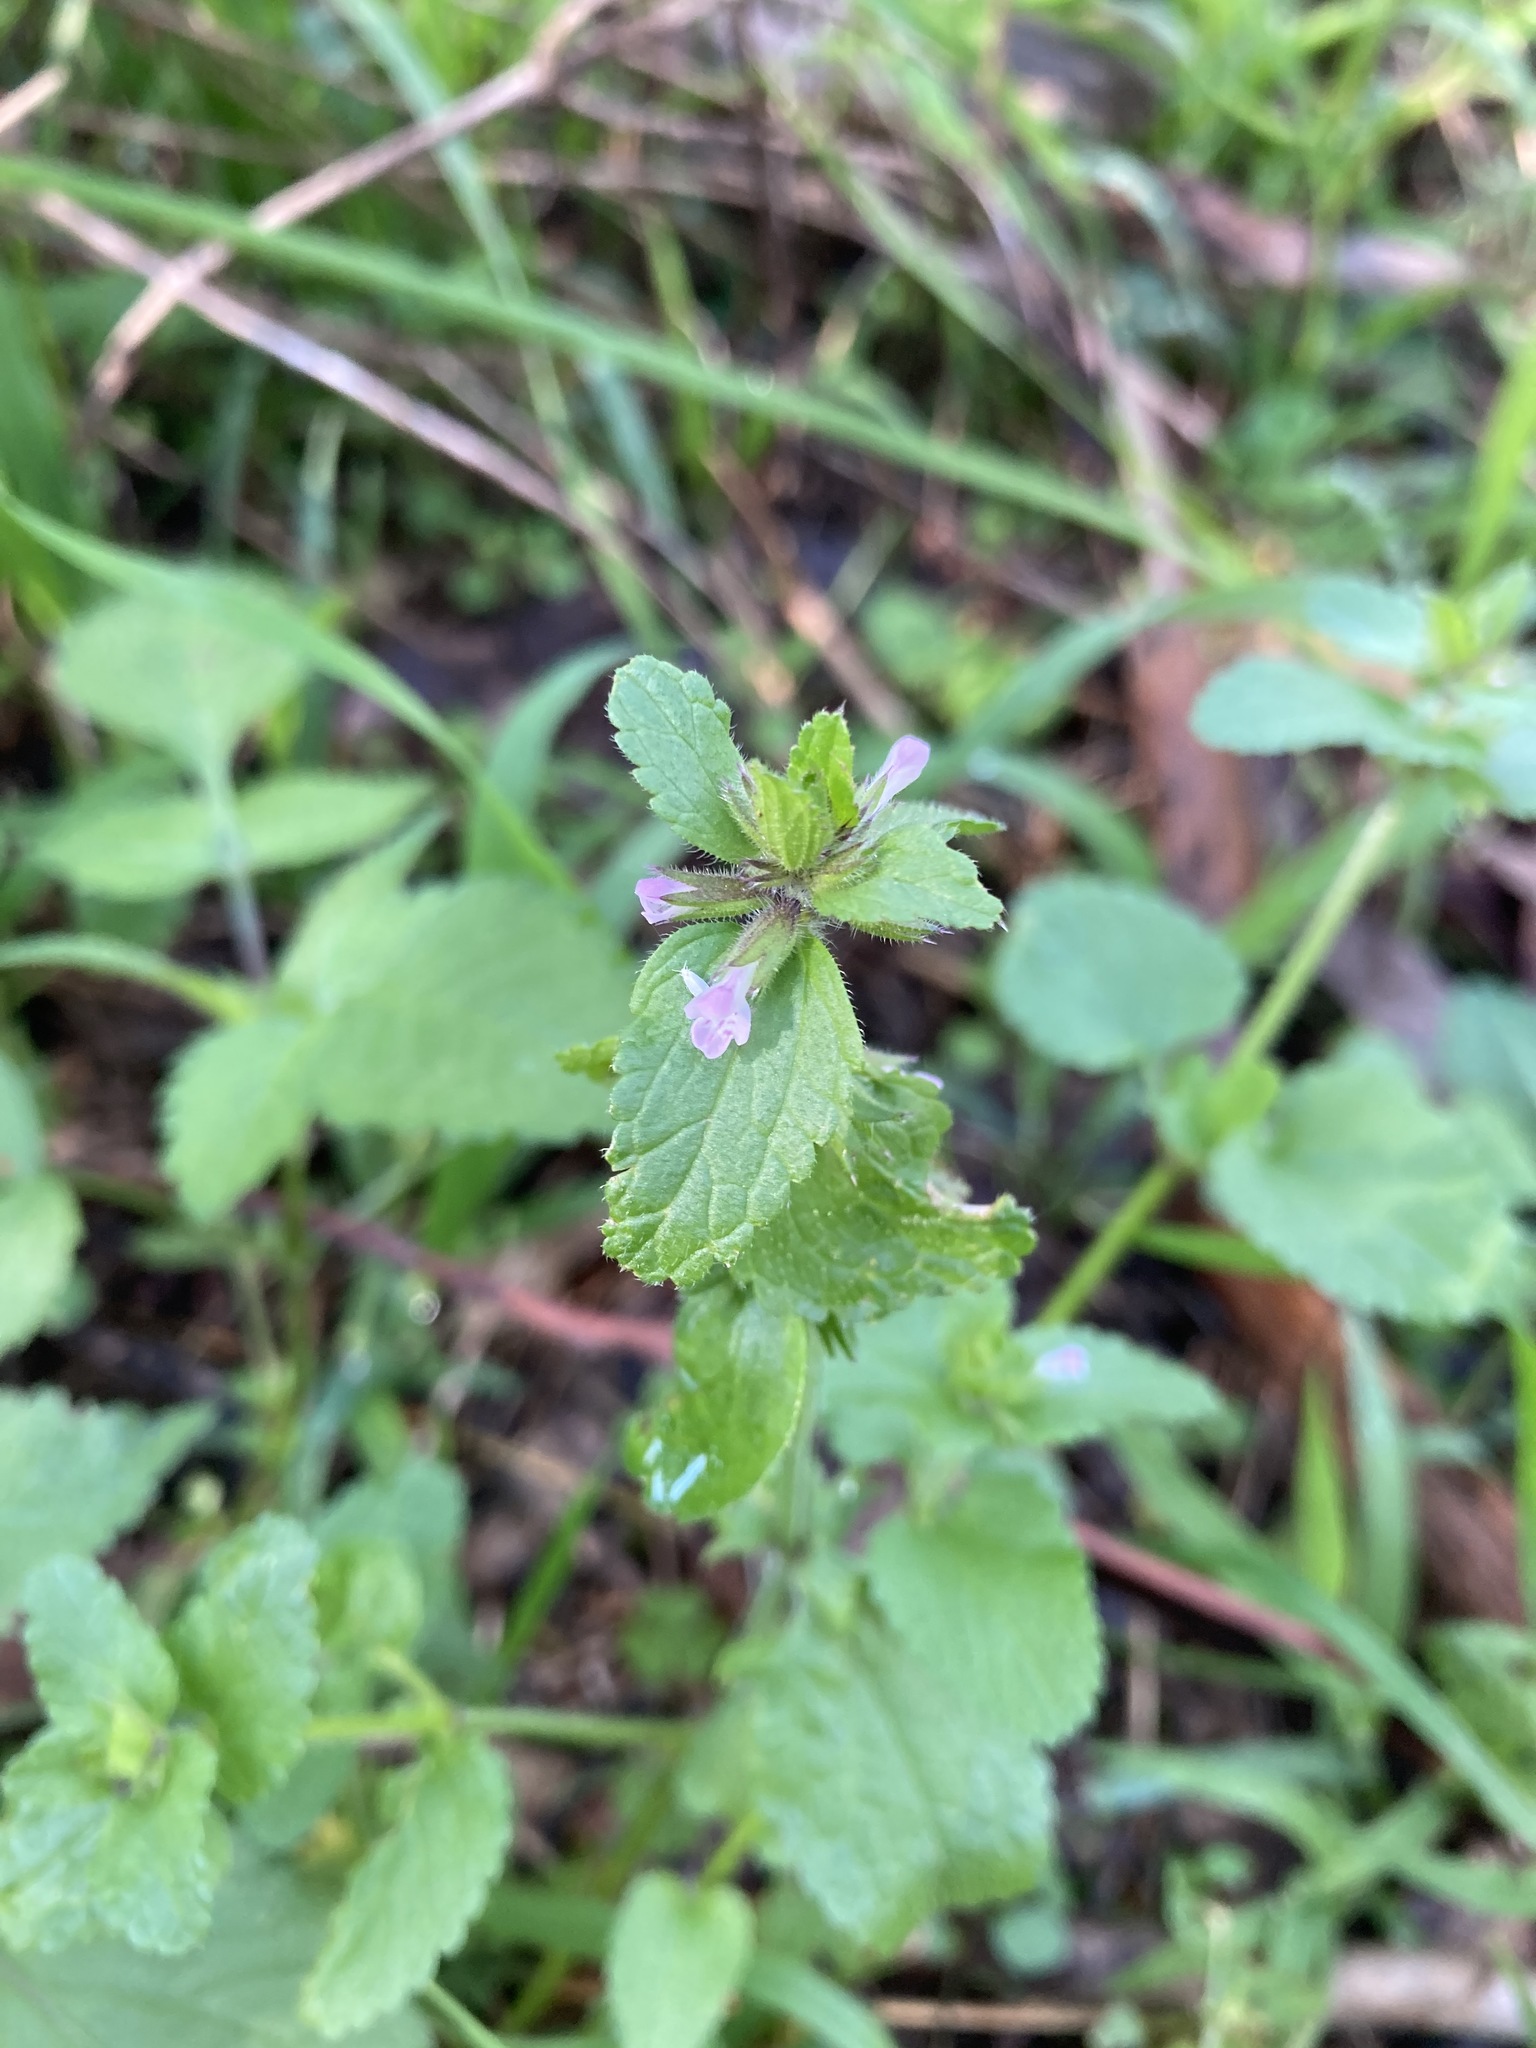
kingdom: Plantae
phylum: Tracheophyta
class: Magnoliopsida
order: Lamiales
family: Lamiaceae
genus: Stachys
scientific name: Stachys arvensis
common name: Field woundwort
